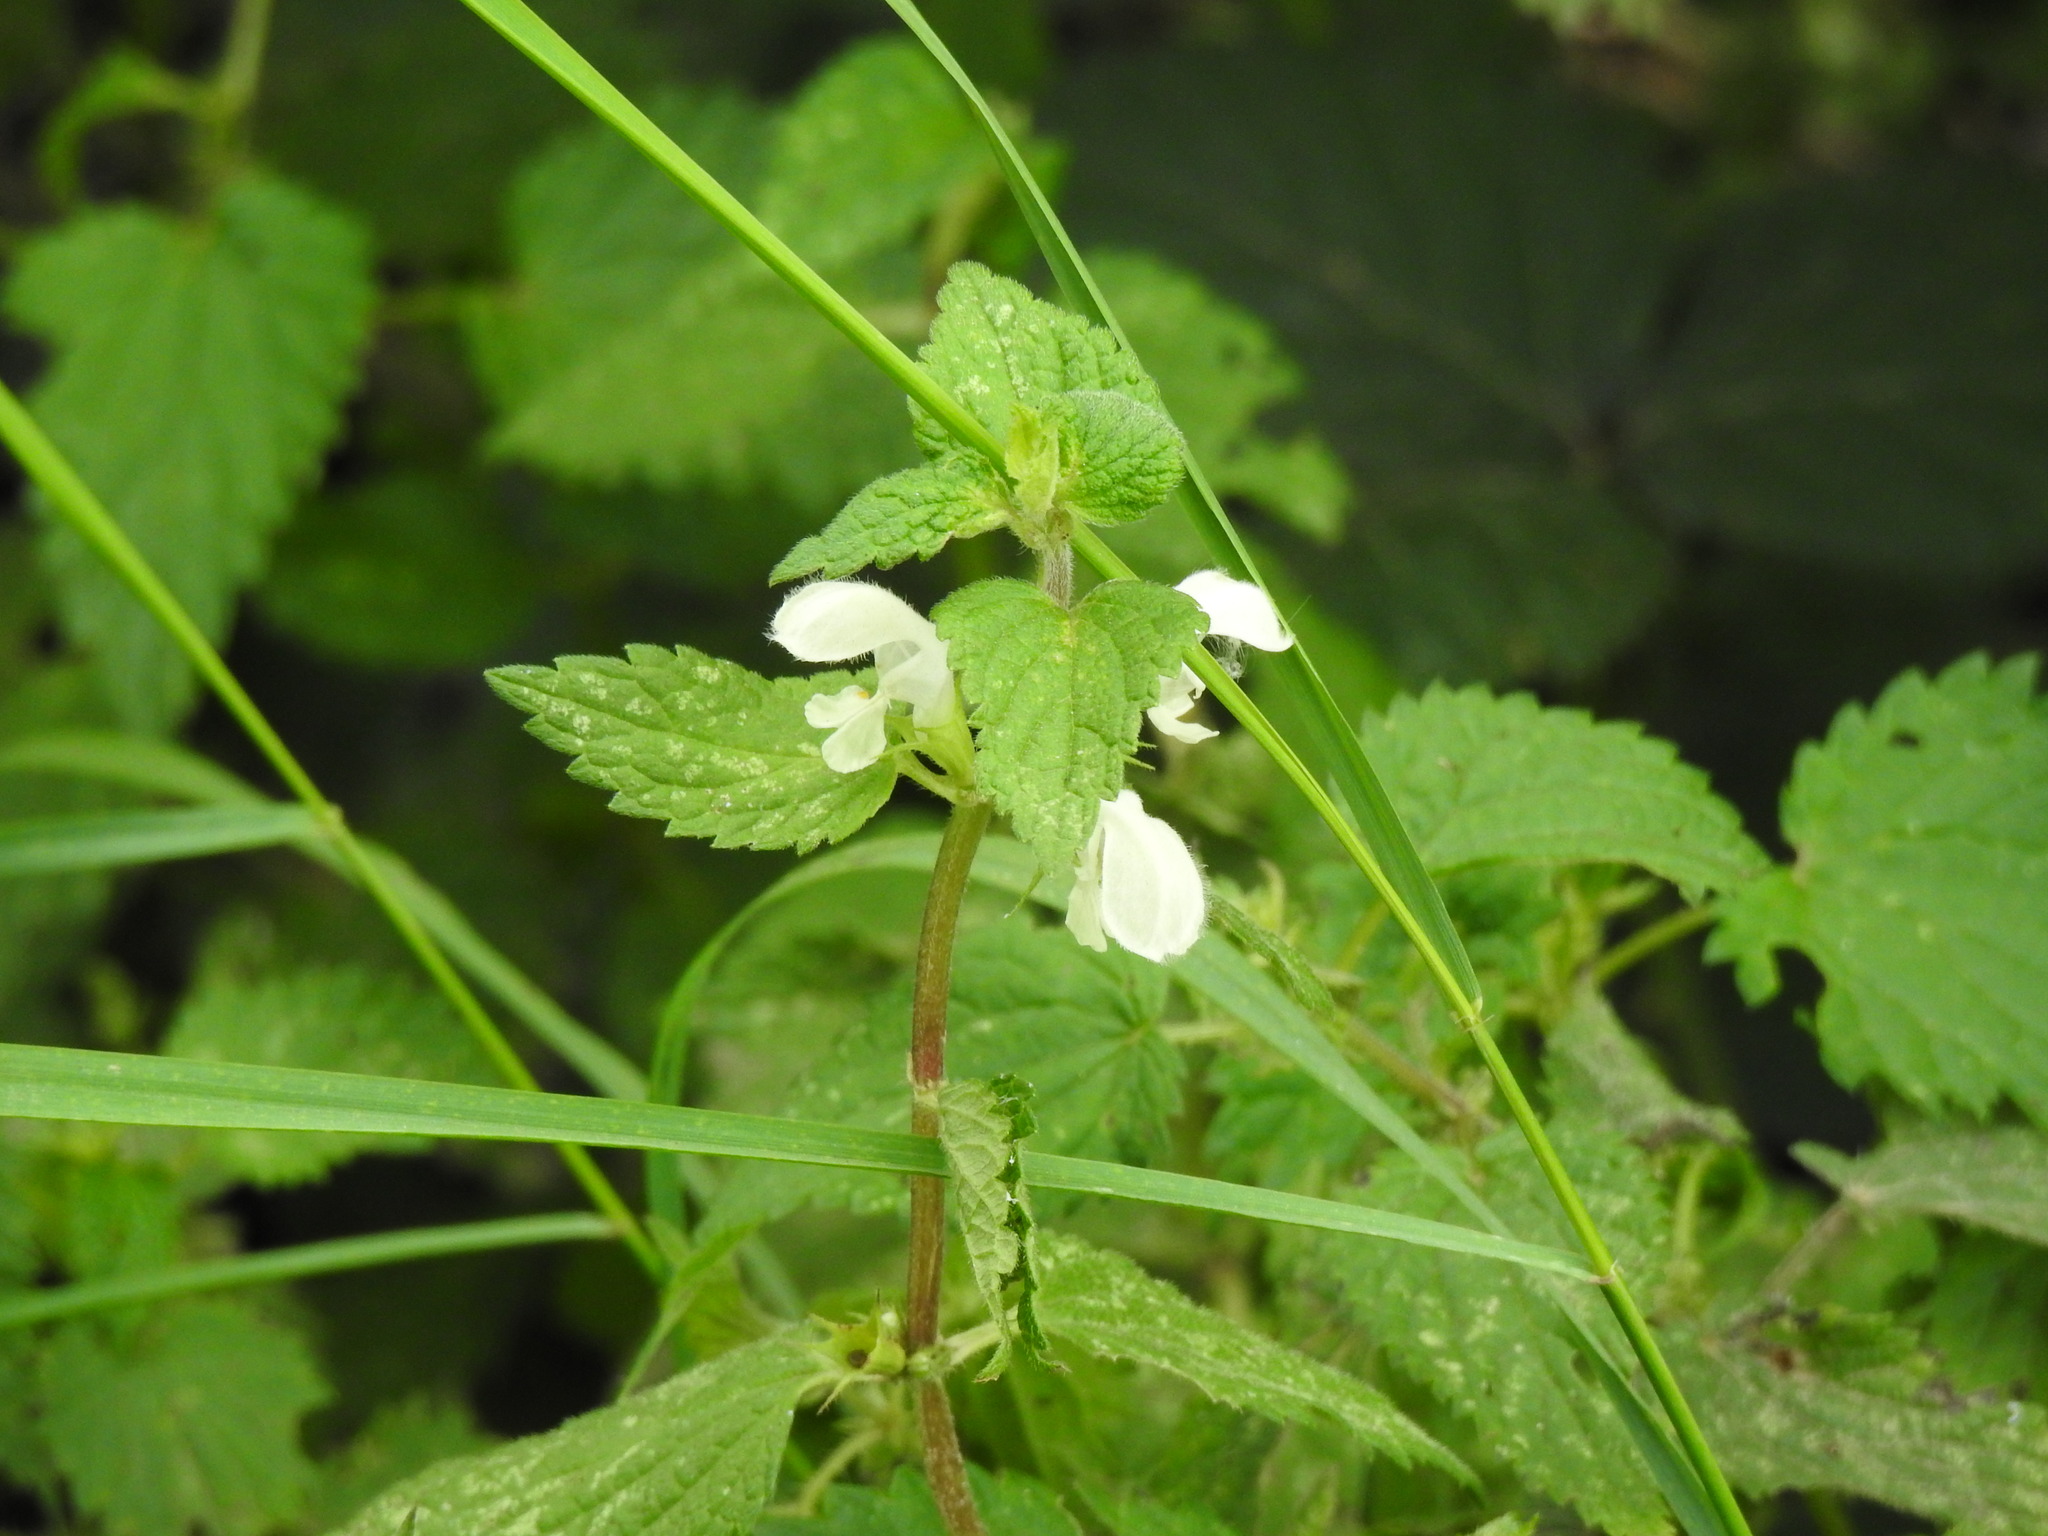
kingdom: Plantae
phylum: Tracheophyta
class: Magnoliopsida
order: Lamiales
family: Lamiaceae
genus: Lamium
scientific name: Lamium album
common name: White dead-nettle
